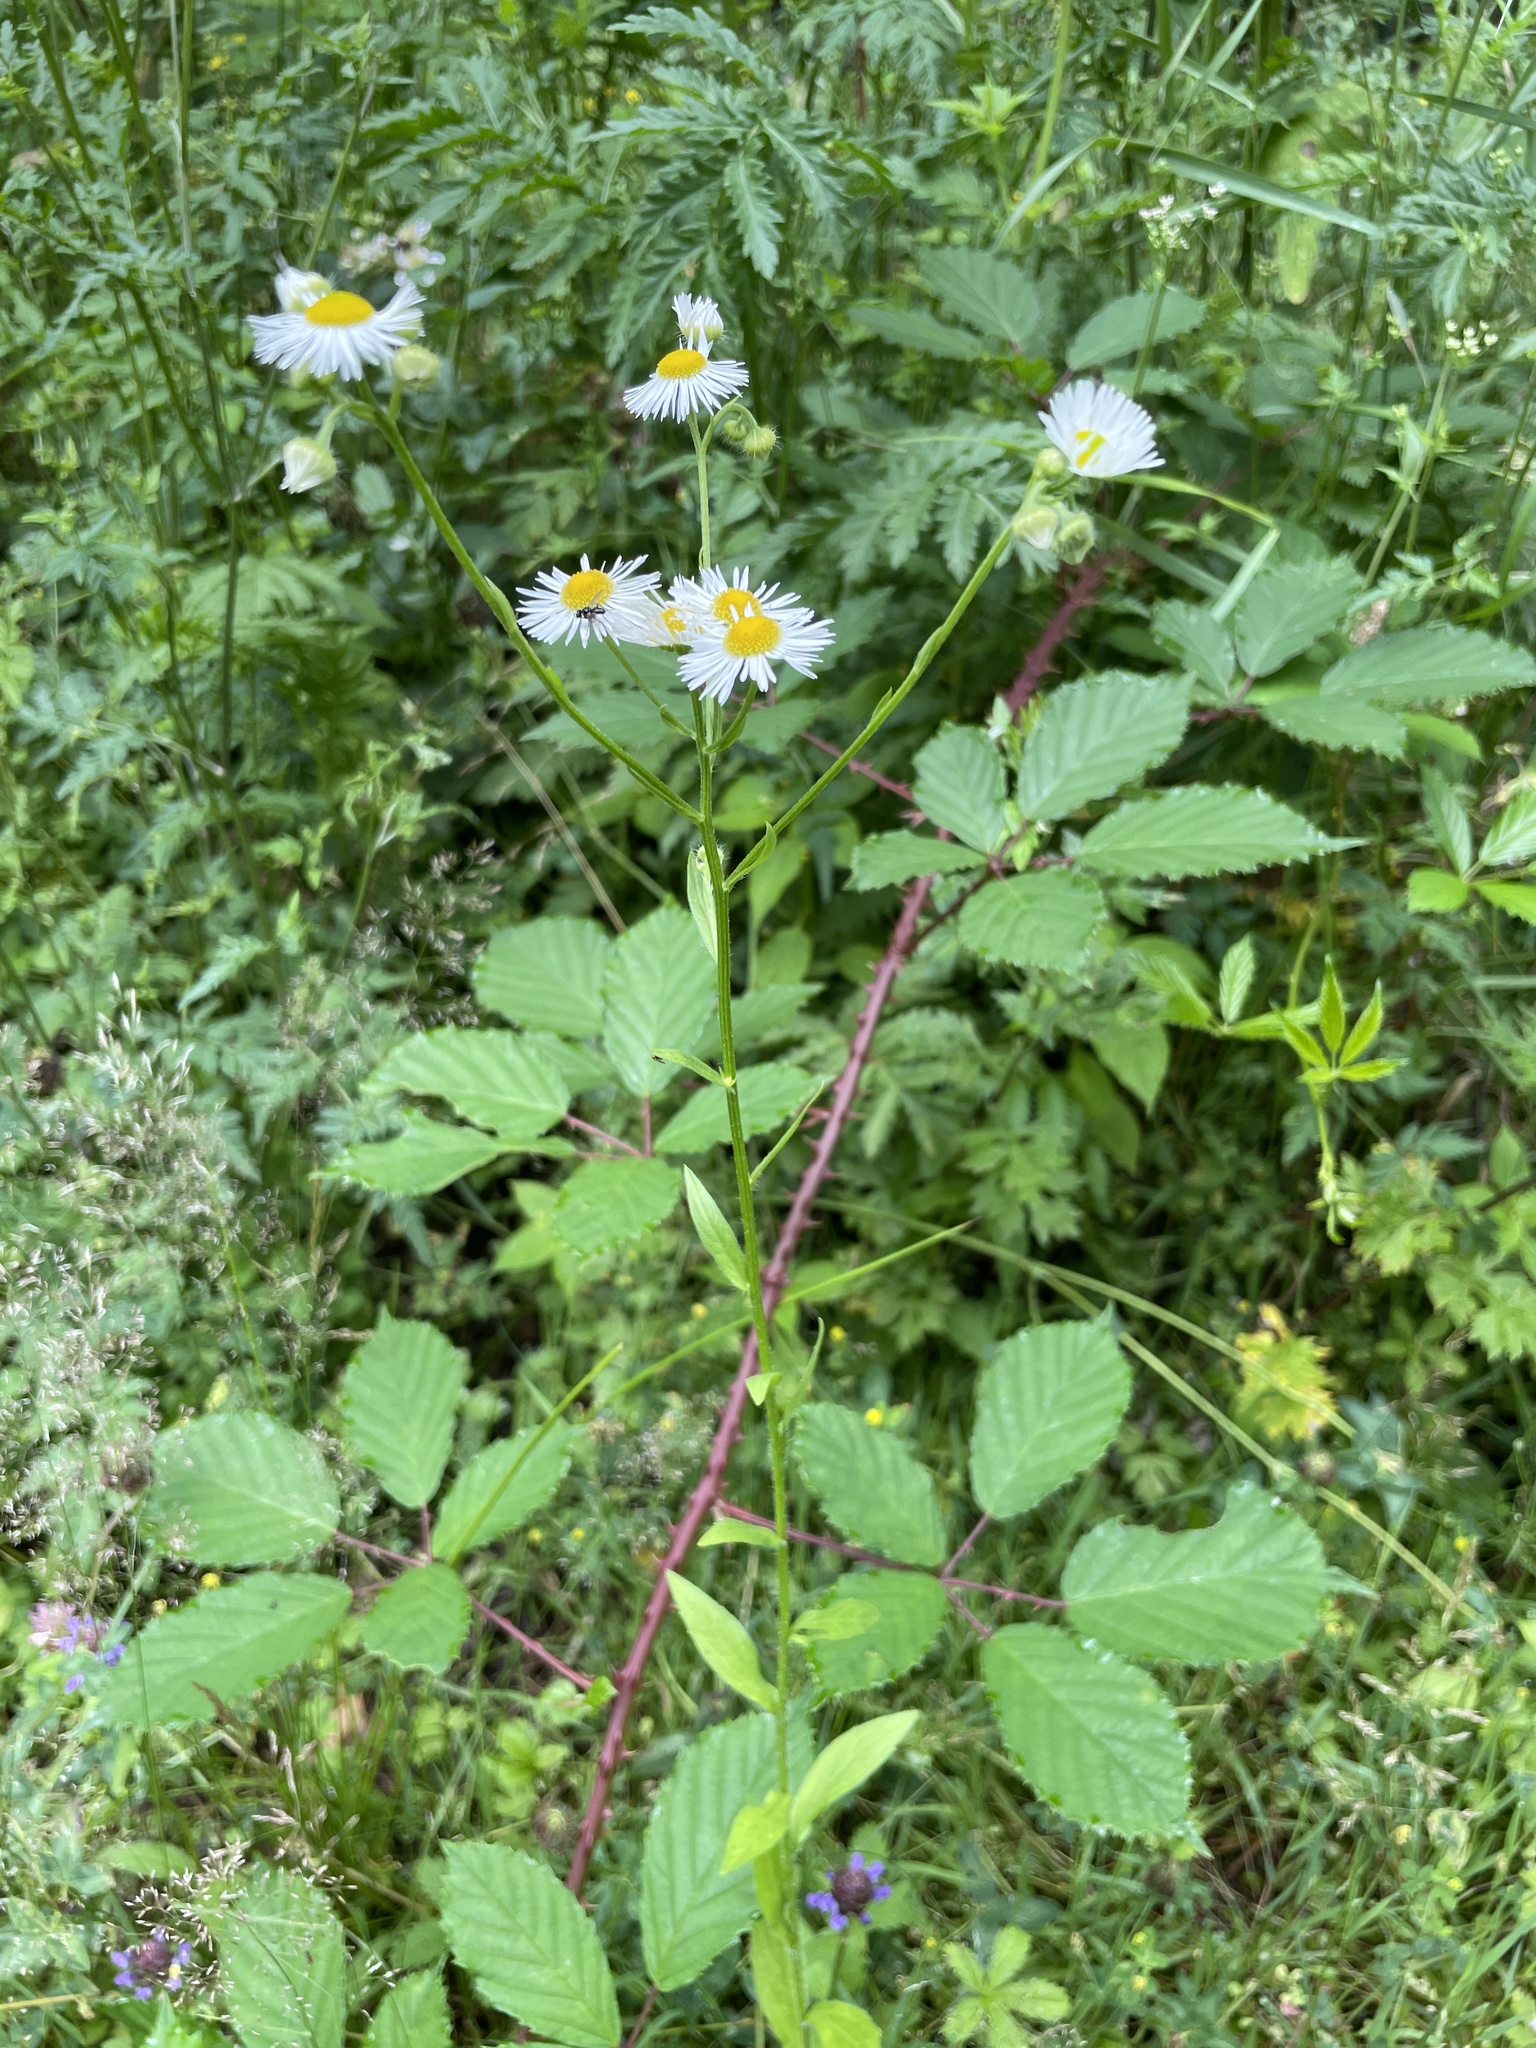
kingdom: Plantae
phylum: Tracheophyta
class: Magnoliopsida
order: Asterales
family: Asteraceae
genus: Erigeron
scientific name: Erigeron annuus
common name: Tall fleabane
